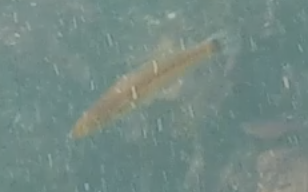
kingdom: Animalia
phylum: Chordata
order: Perciformes
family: Labridae
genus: Oxyjulis
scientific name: Oxyjulis californica
